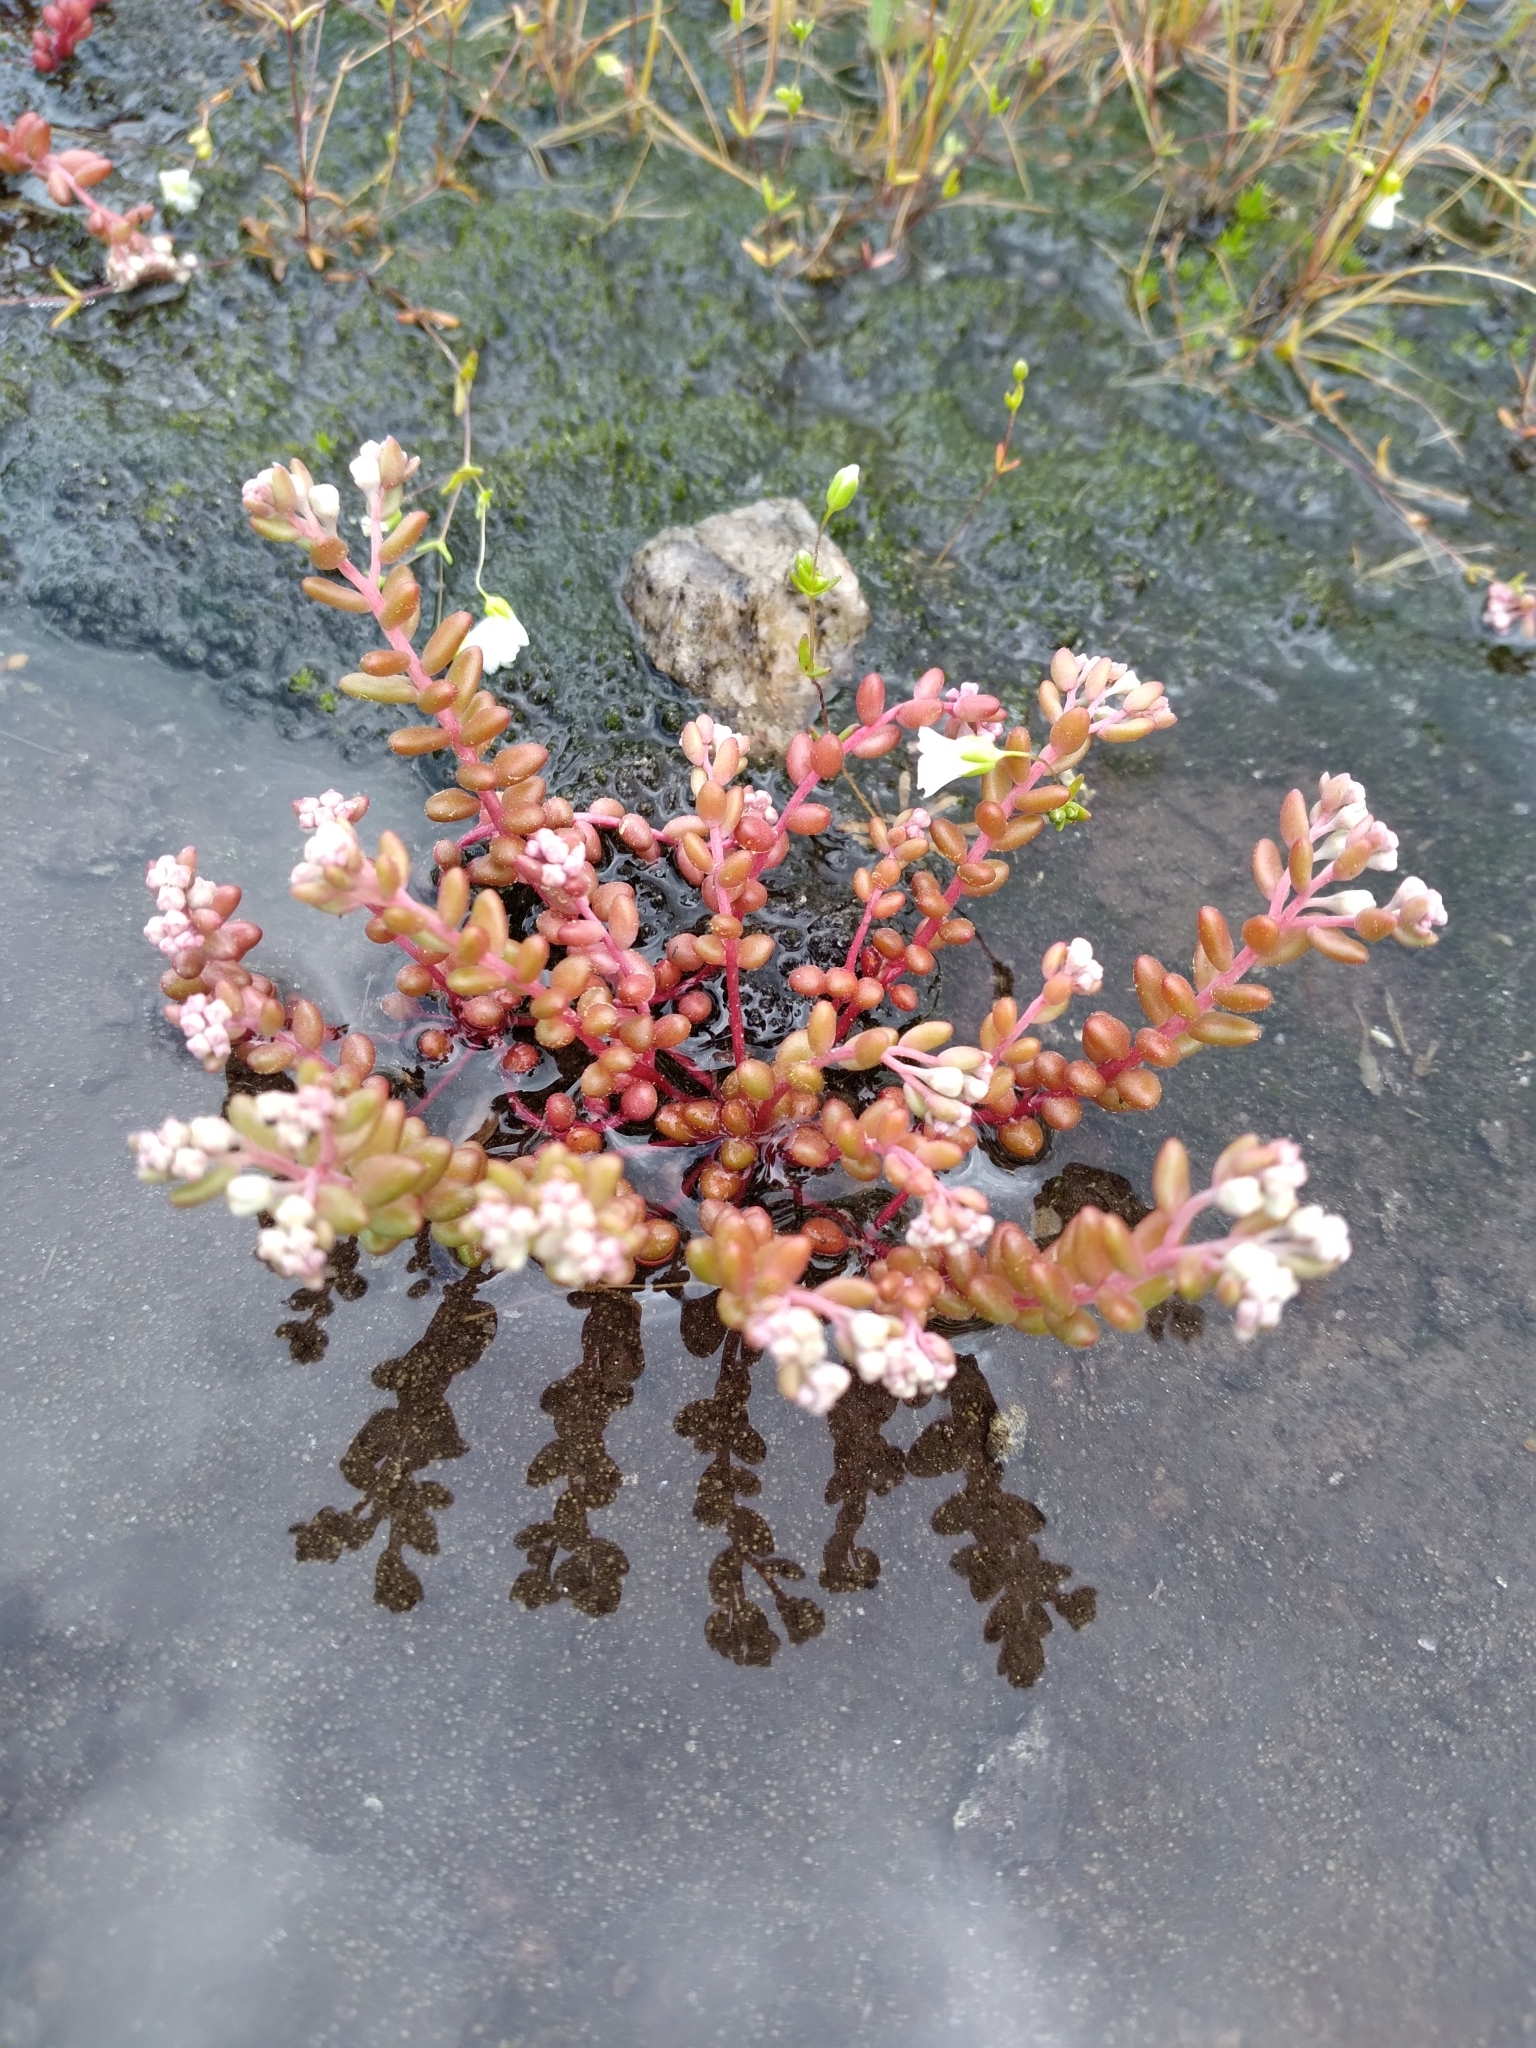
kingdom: Plantae
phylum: Tracheophyta
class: Magnoliopsida
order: Saxifragales
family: Crassulaceae
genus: Sedum
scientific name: Sedum smallii
